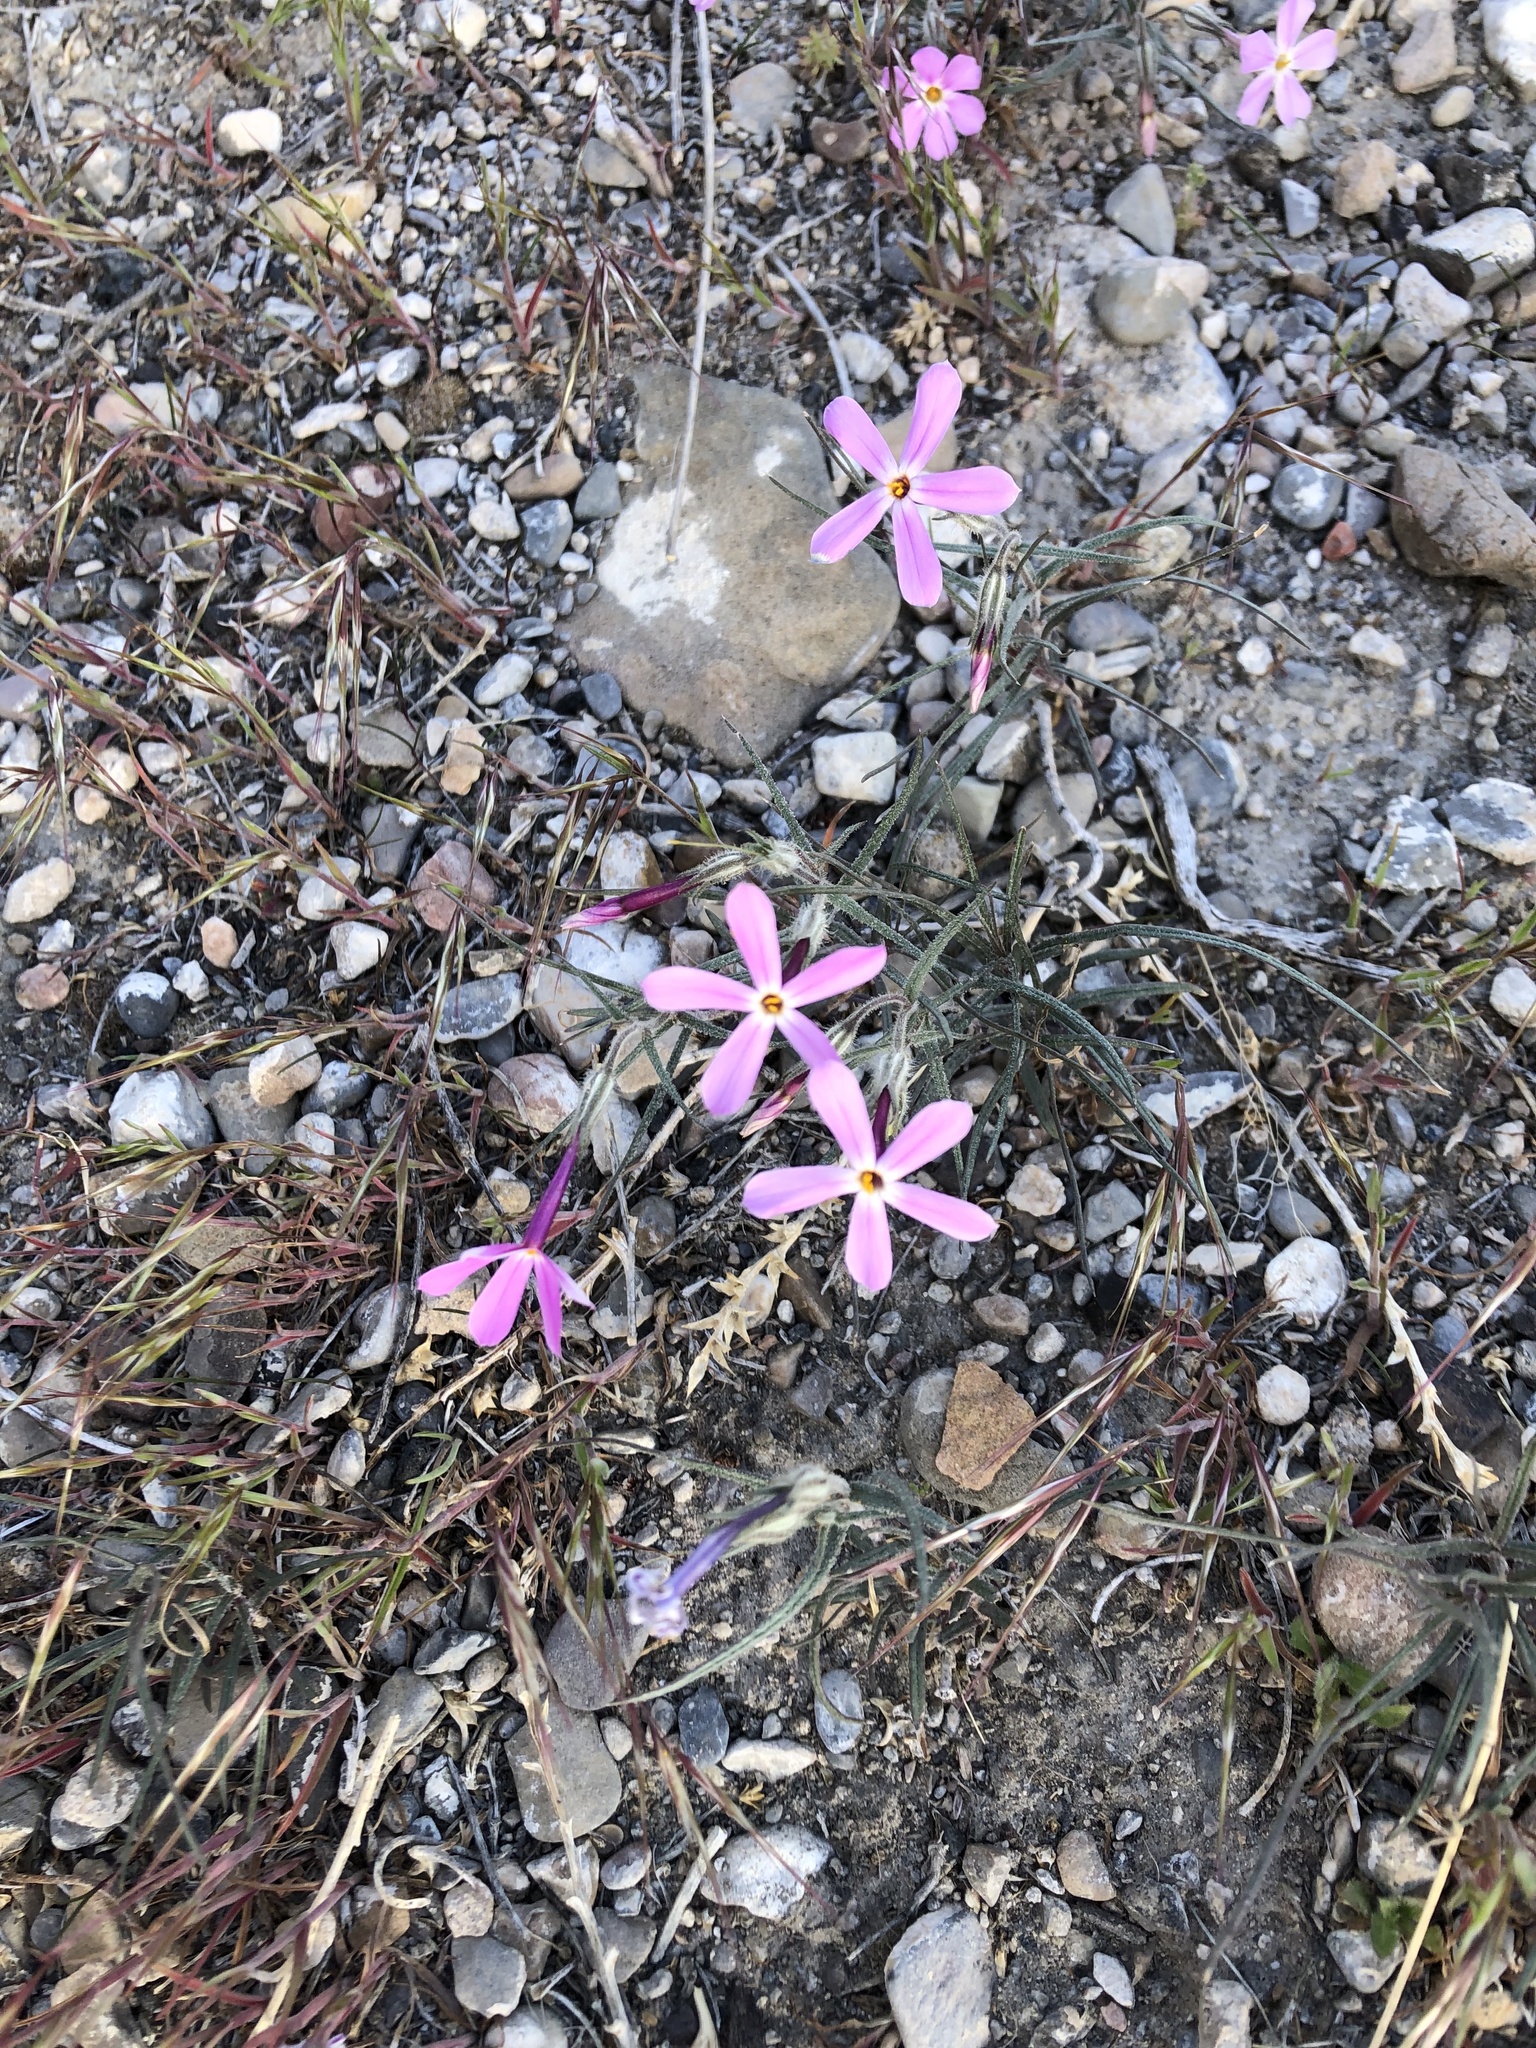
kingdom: Plantae
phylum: Tracheophyta
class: Magnoliopsida
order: Ericales
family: Polemoniaceae
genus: Phlox
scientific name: Phlox longifolia
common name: Longleaf phlox
